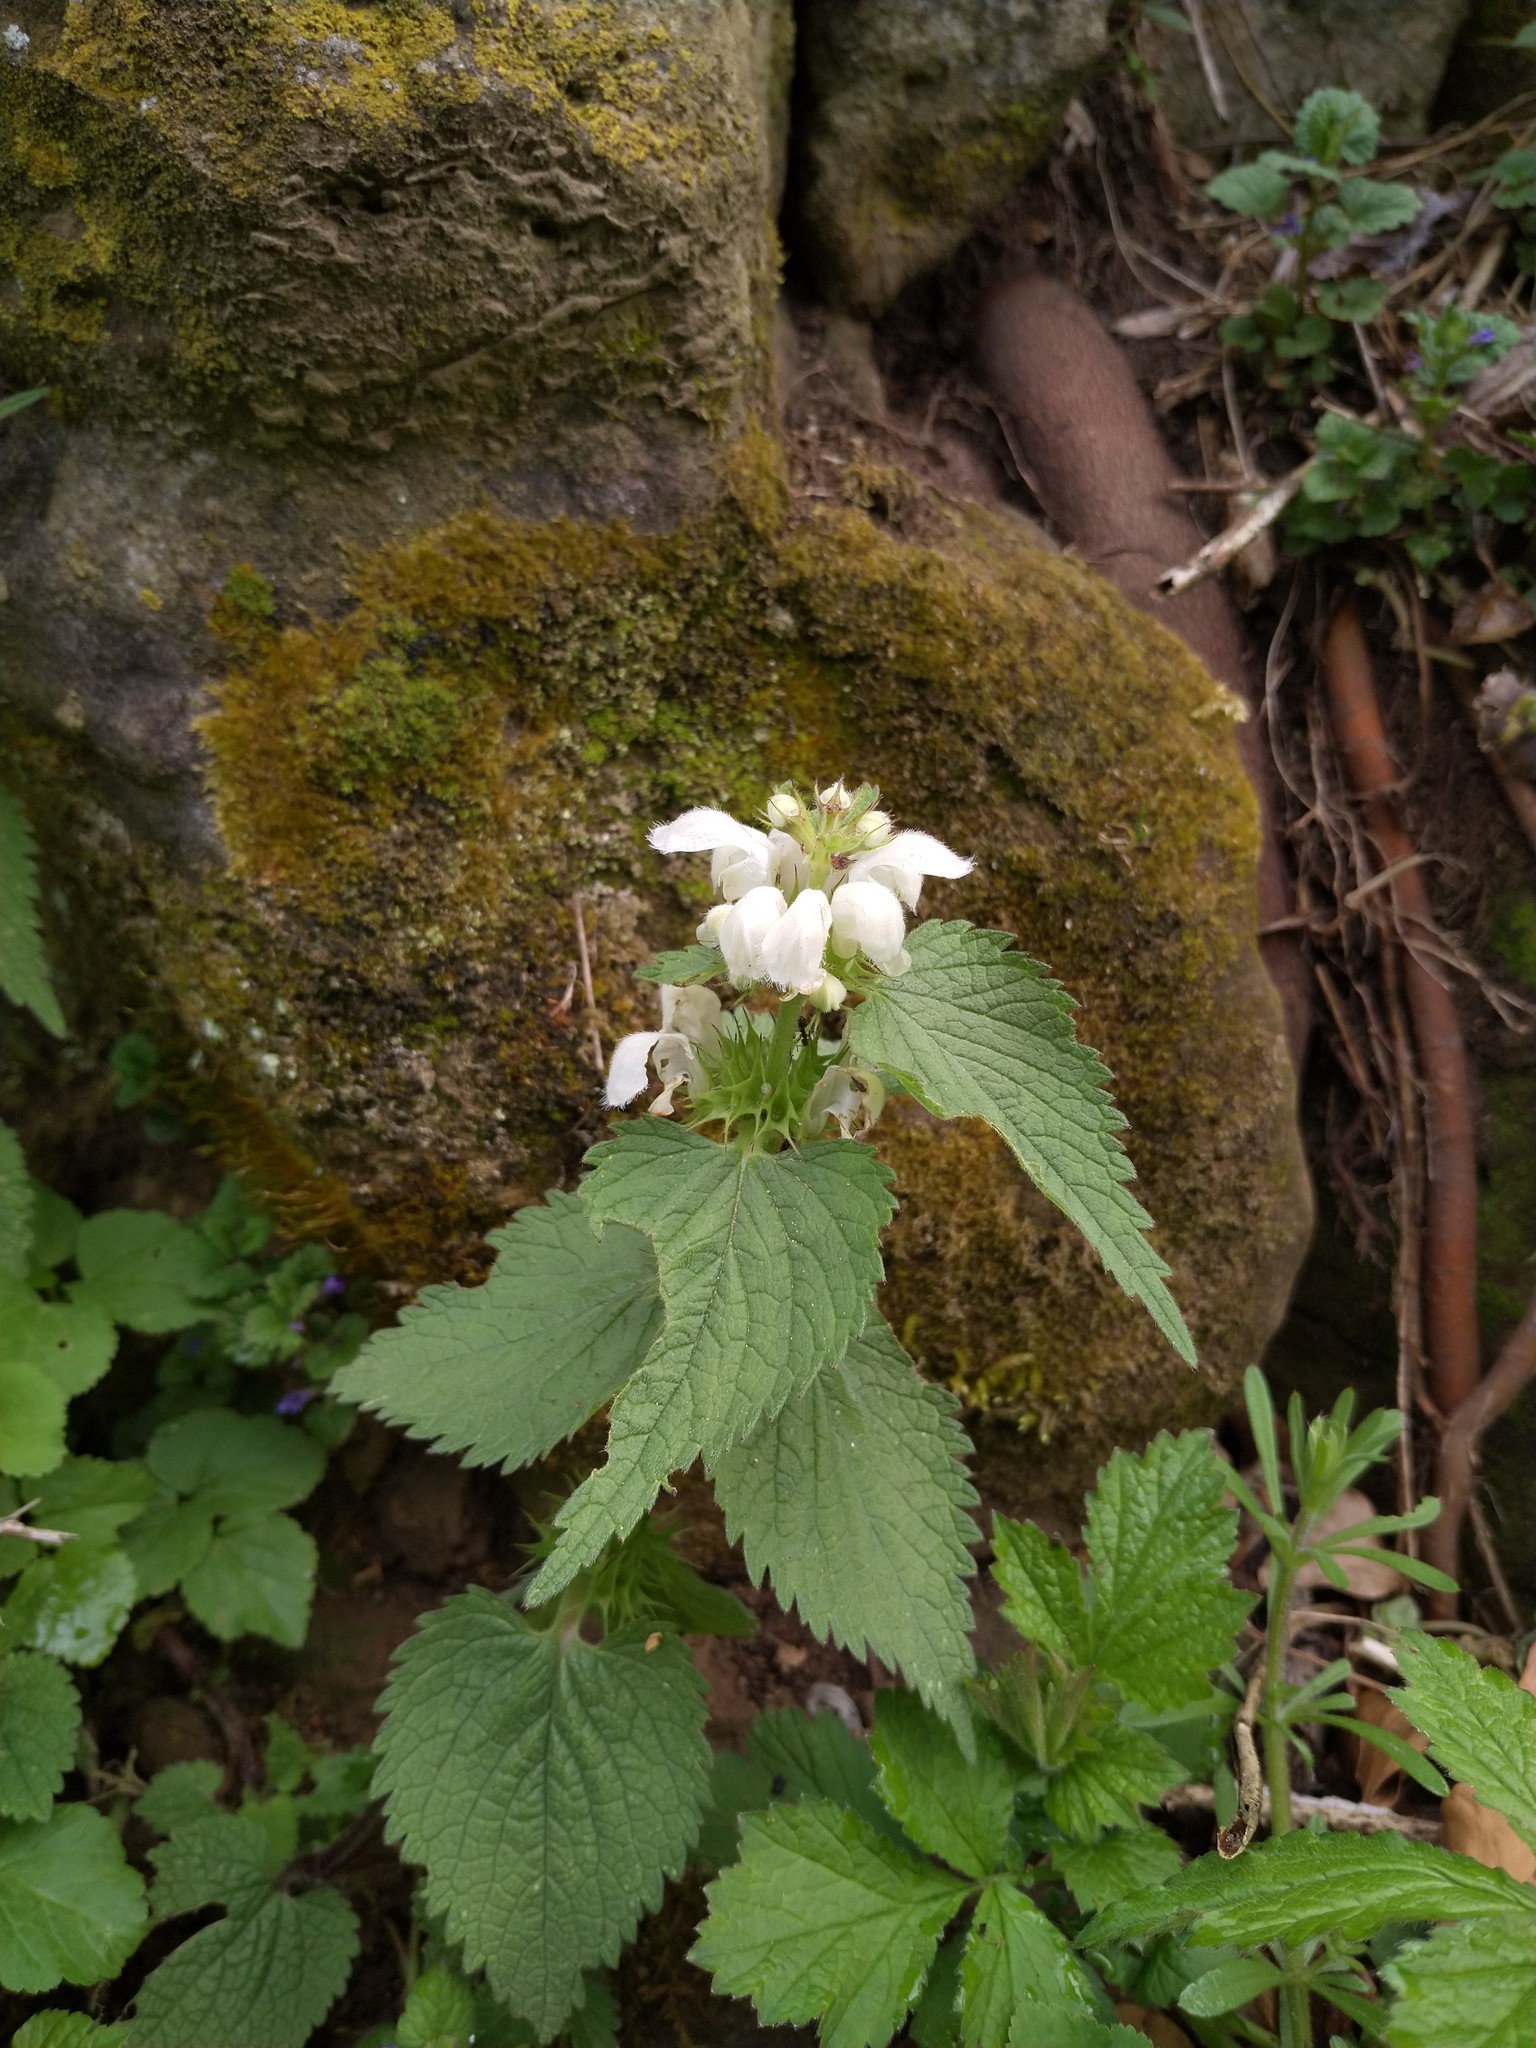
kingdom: Plantae
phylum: Tracheophyta
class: Magnoliopsida
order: Lamiales
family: Lamiaceae
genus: Lamium
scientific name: Lamium album
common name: White dead-nettle
